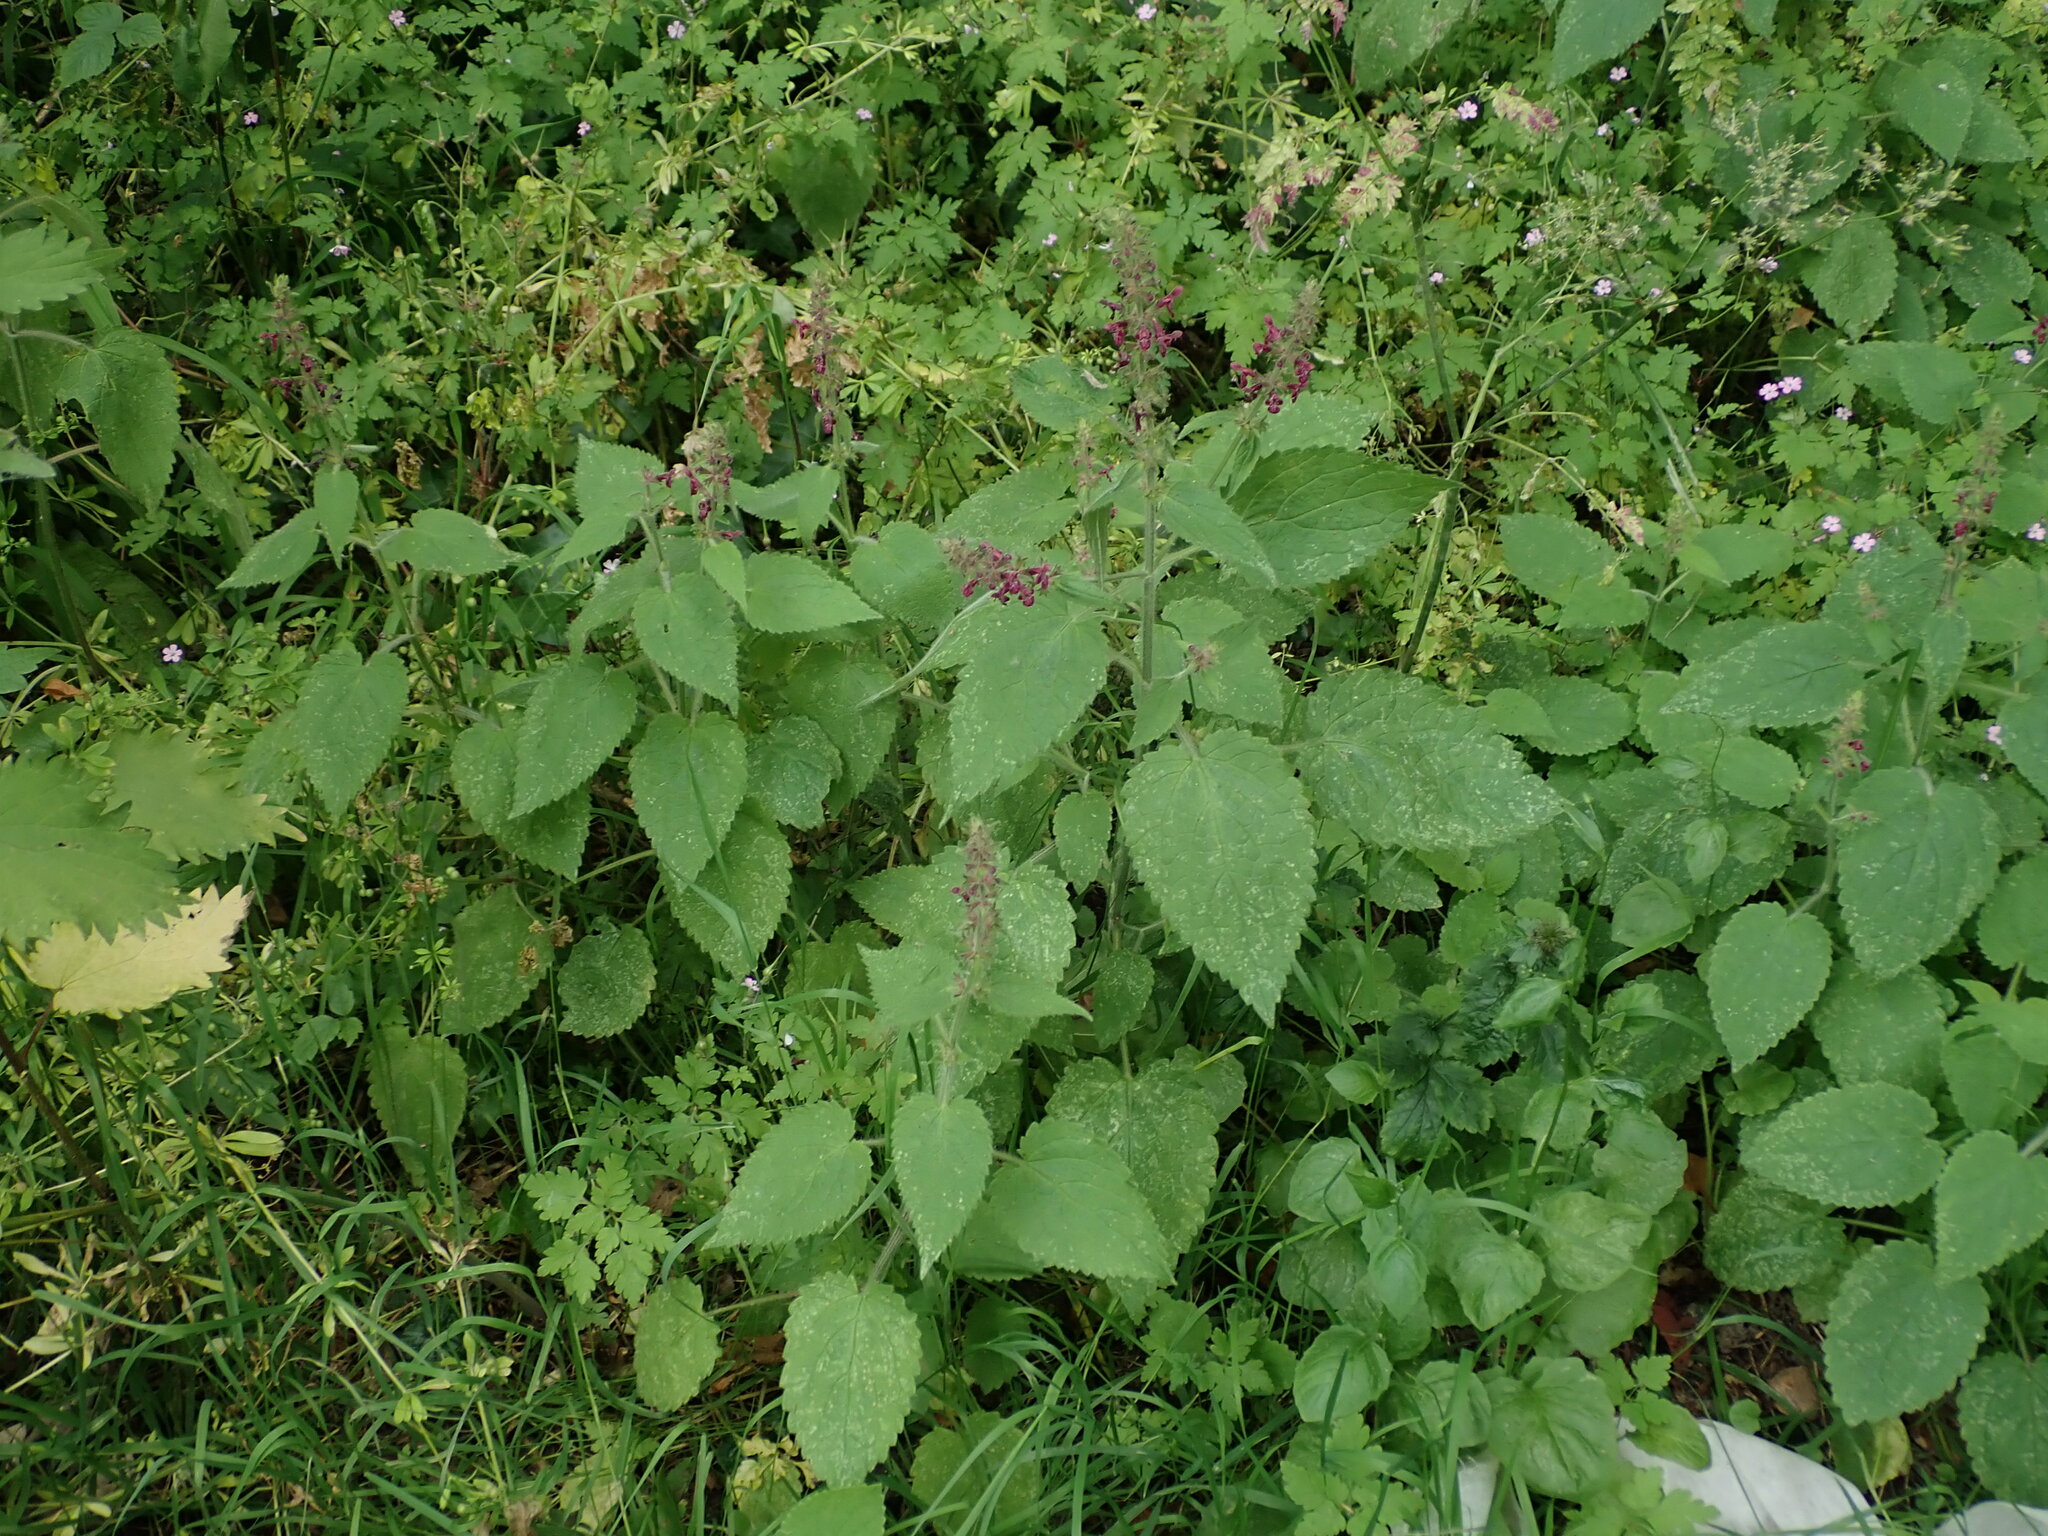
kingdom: Plantae
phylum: Tracheophyta
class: Magnoliopsida
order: Lamiales
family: Lamiaceae
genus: Stachys
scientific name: Stachys sylvatica
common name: Hedge woundwort
